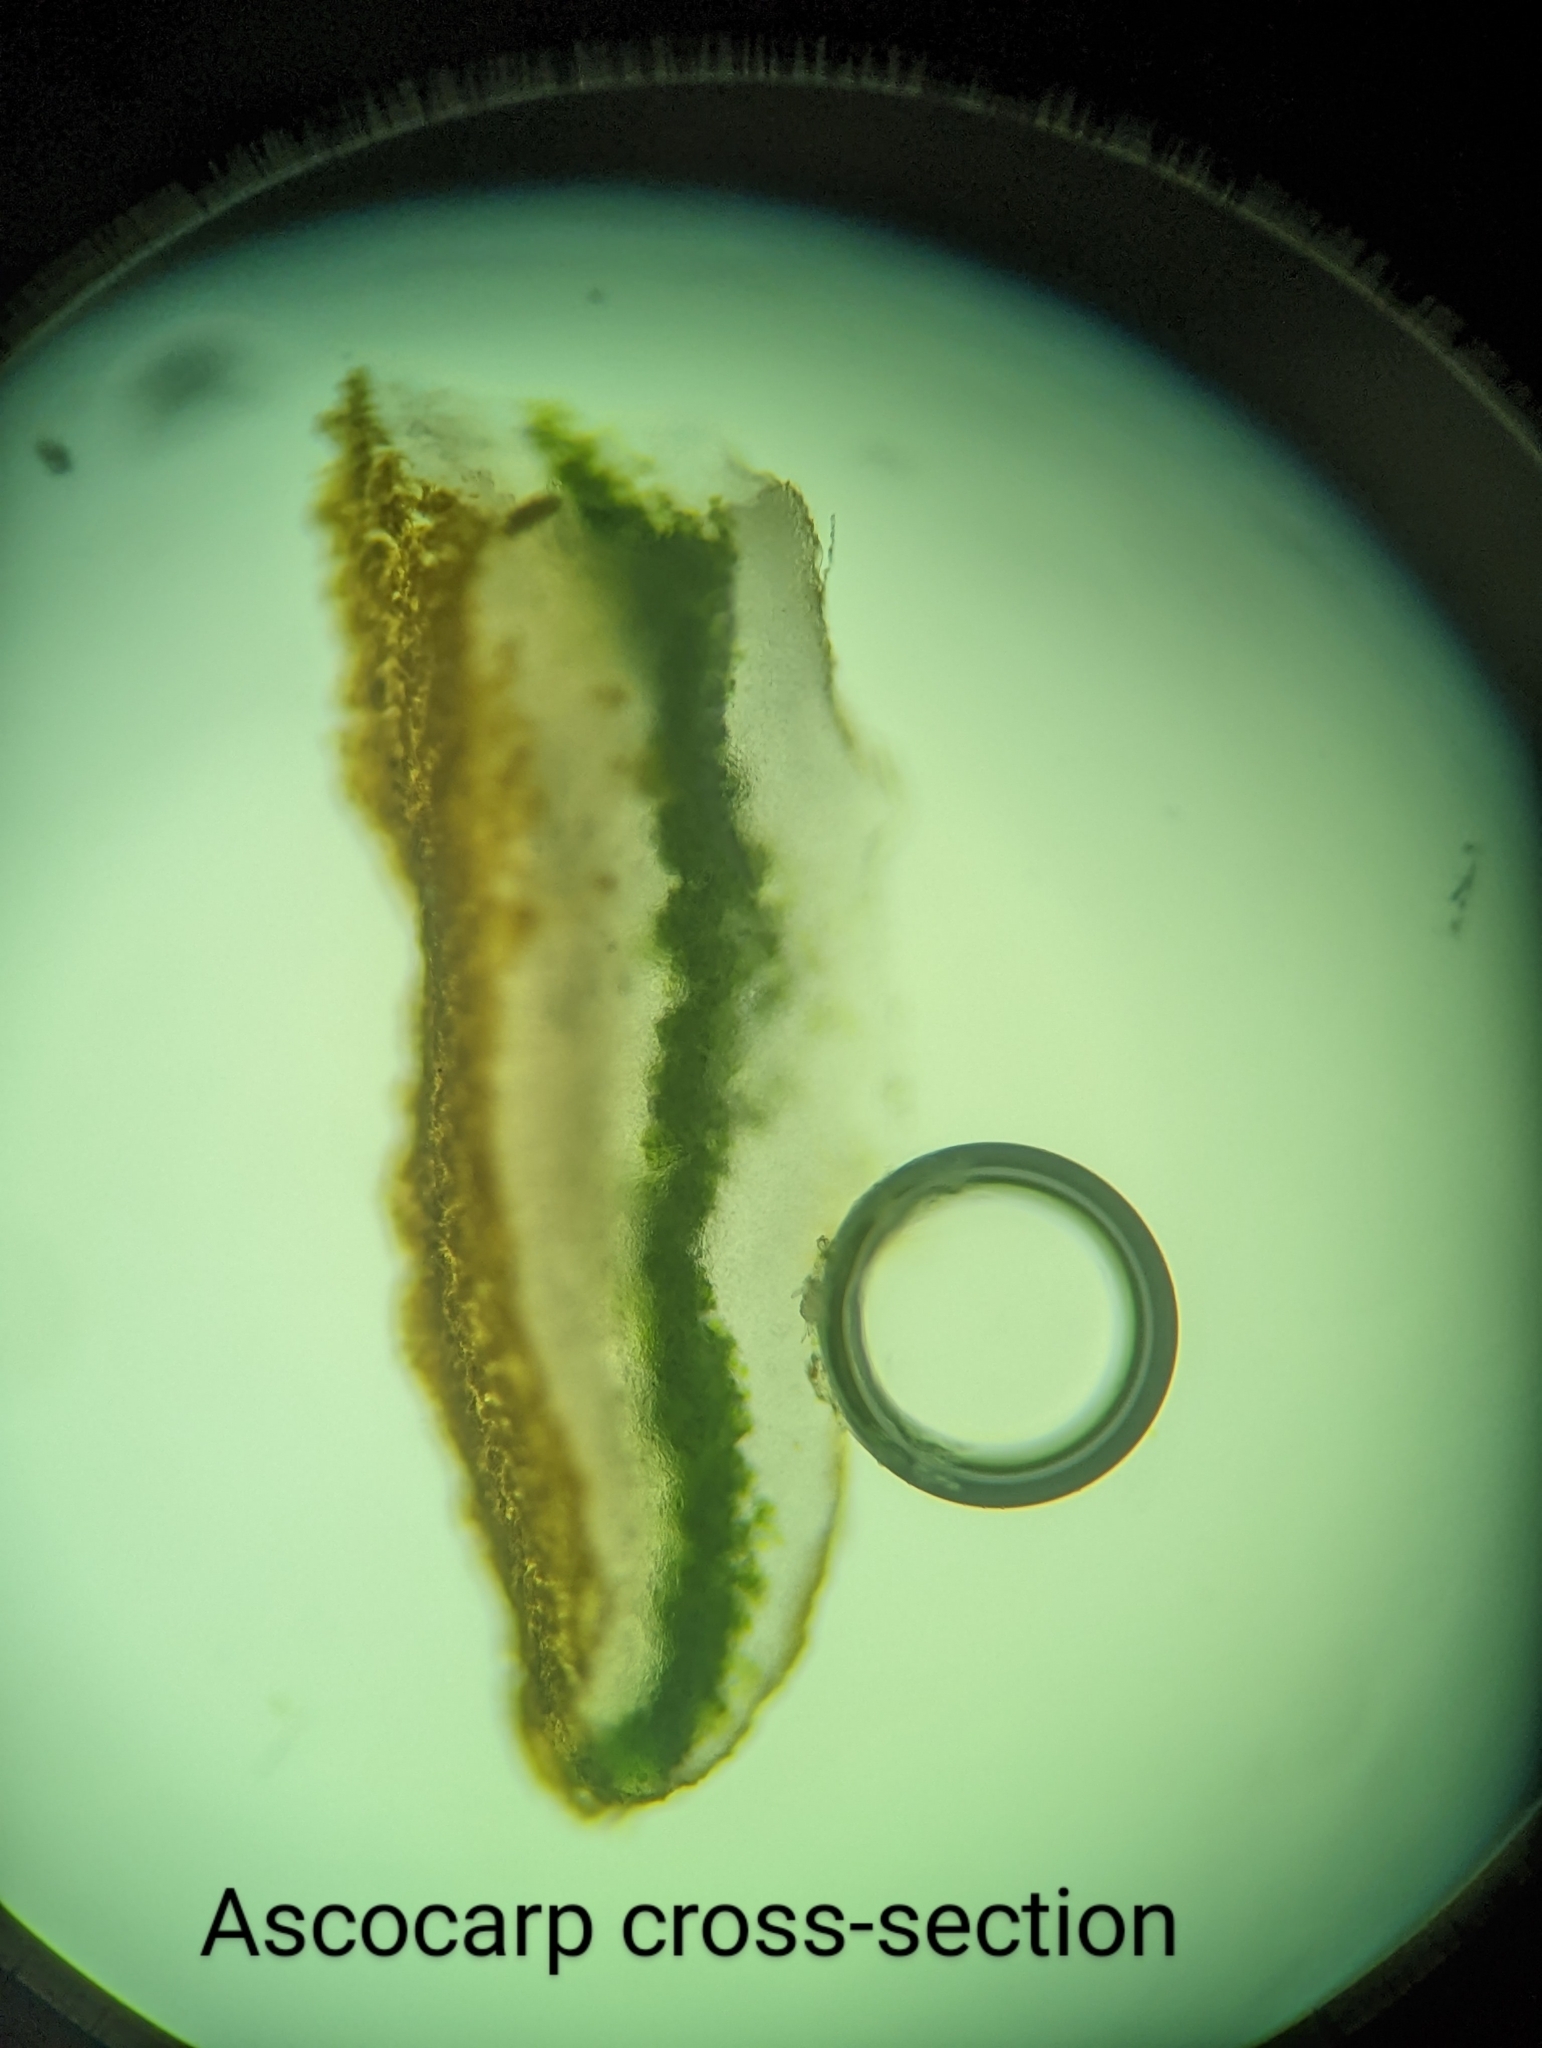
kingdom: Fungi
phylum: Ascomycota
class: Lecanoromycetes
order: Teloschistales
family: Teloschistaceae
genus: Oxneria
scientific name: Oxneria fallax
